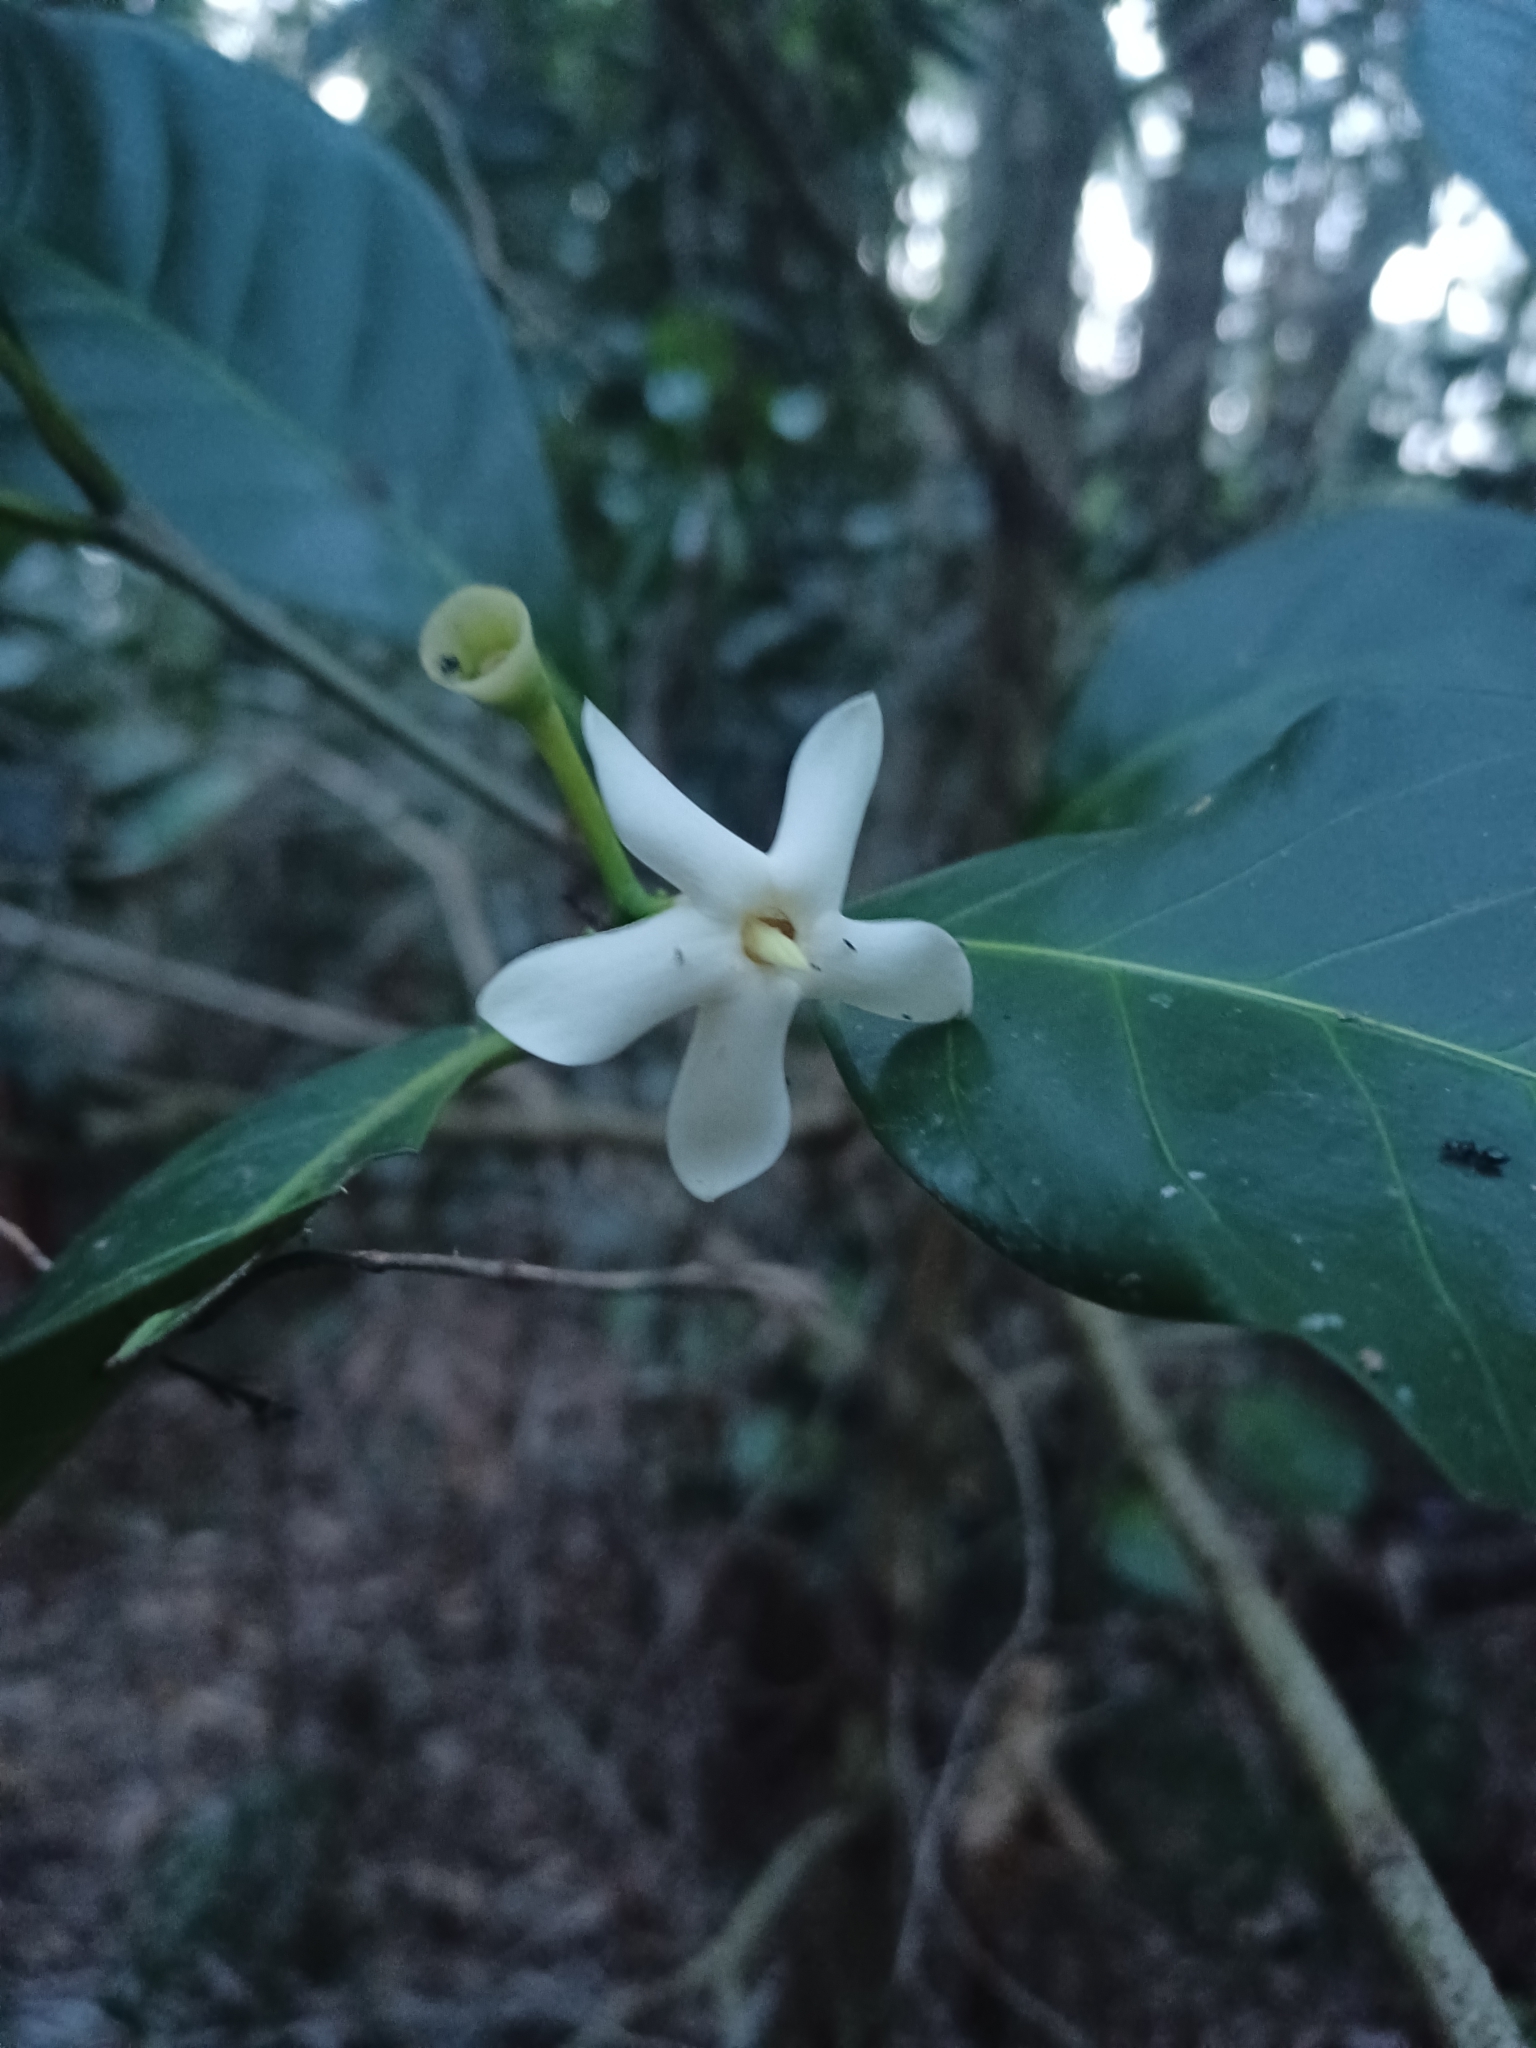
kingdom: Plantae
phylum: Tracheophyta
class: Magnoliopsida
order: Gentianales
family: Rubiaceae
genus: Atractocarpus
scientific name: Atractocarpus fitzalanii
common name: Randia
